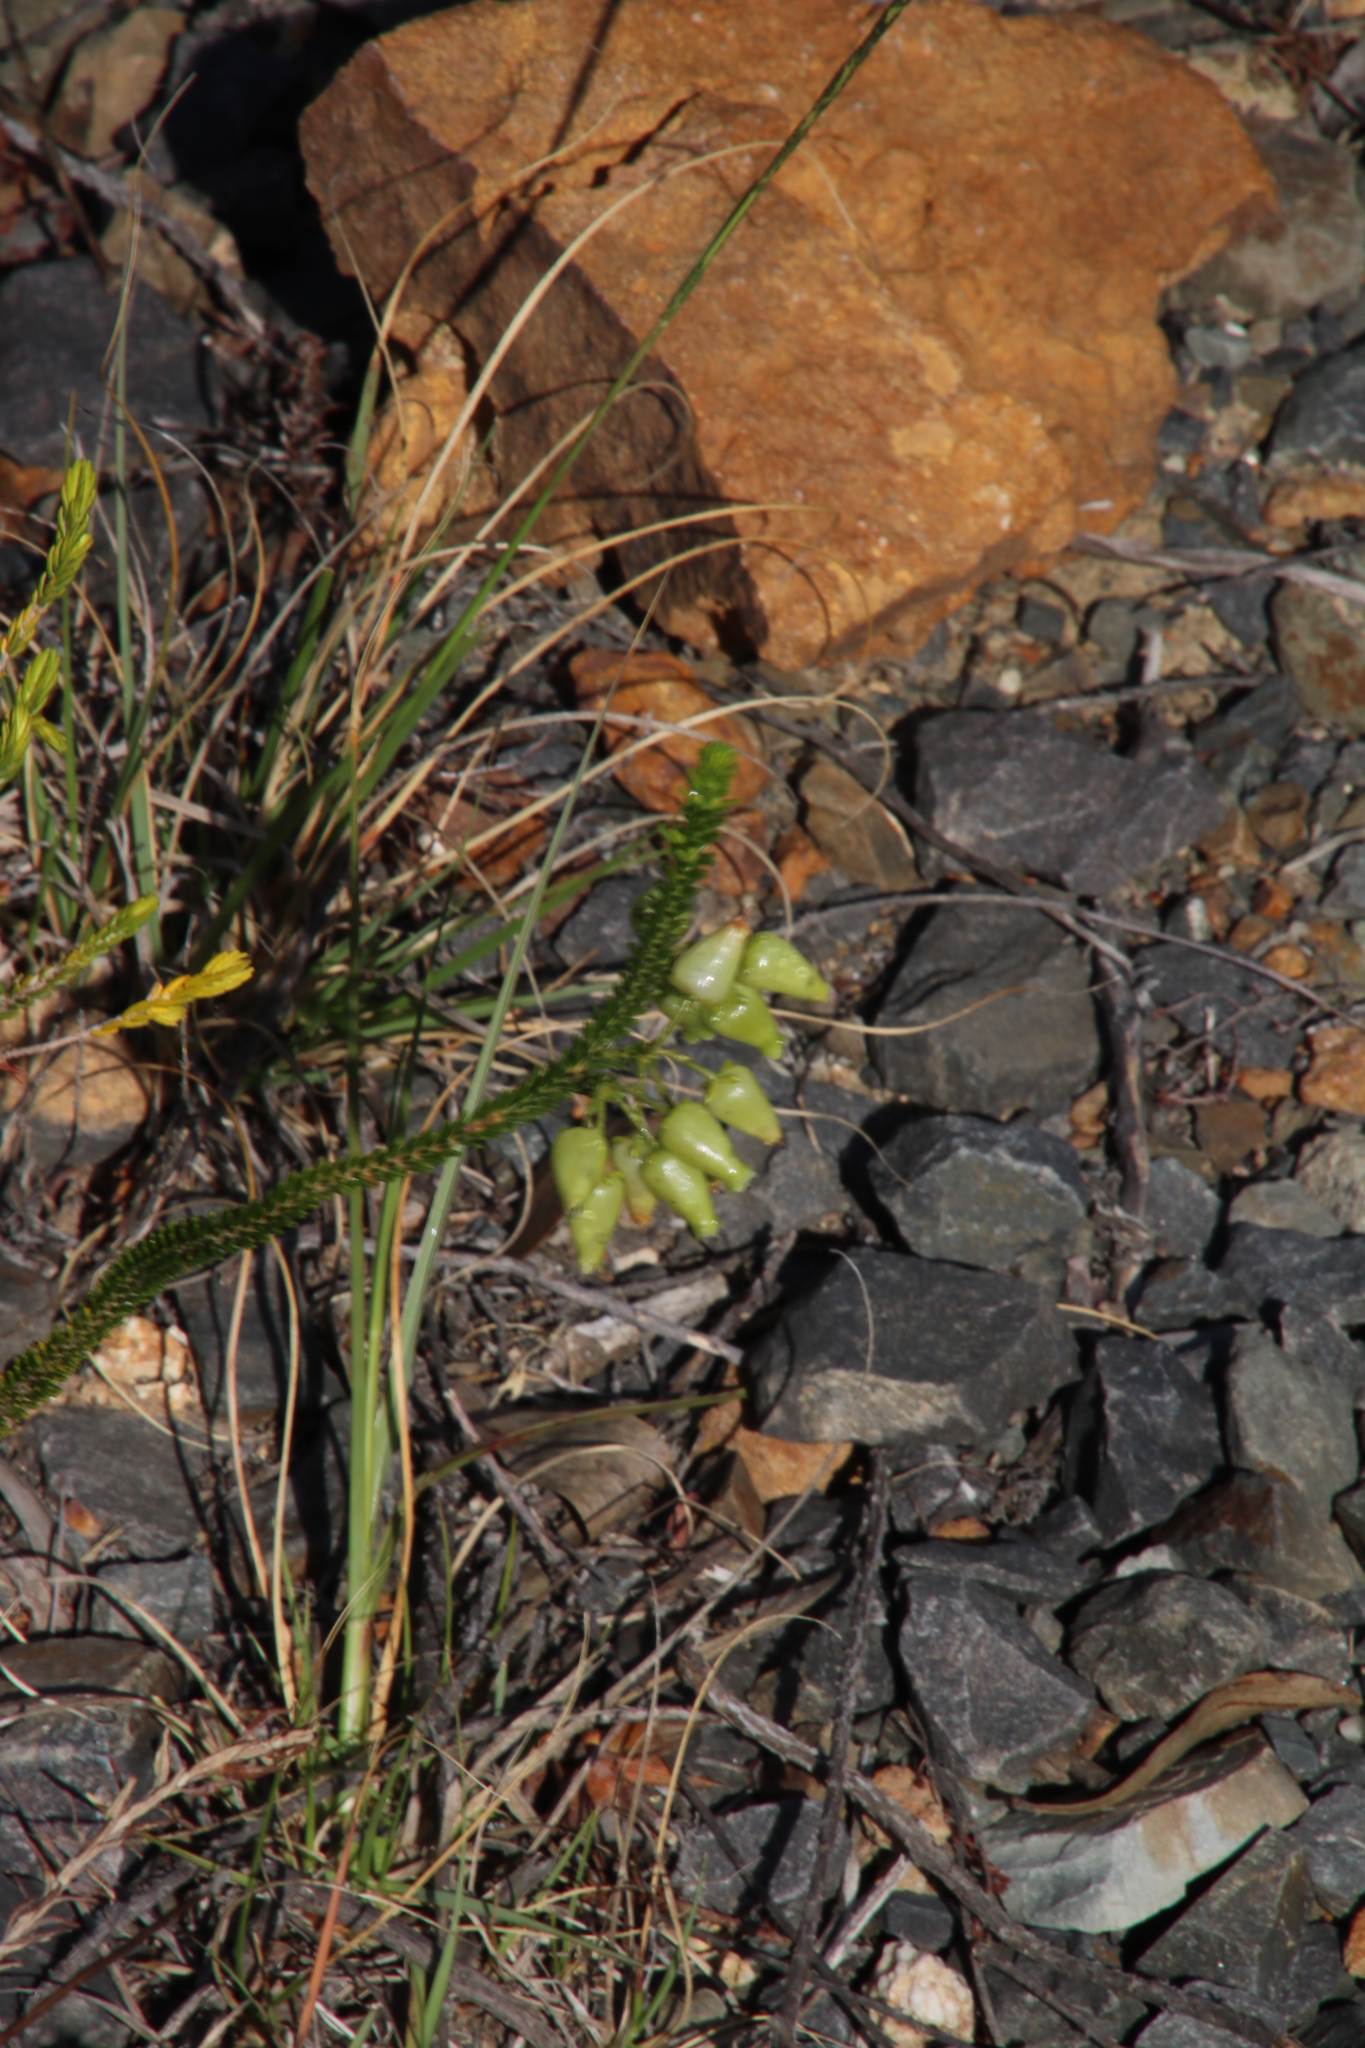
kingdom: Plantae
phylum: Tracheophyta
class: Magnoliopsida
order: Ericales
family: Ericaceae
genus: Erica
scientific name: Erica urna-viridis
